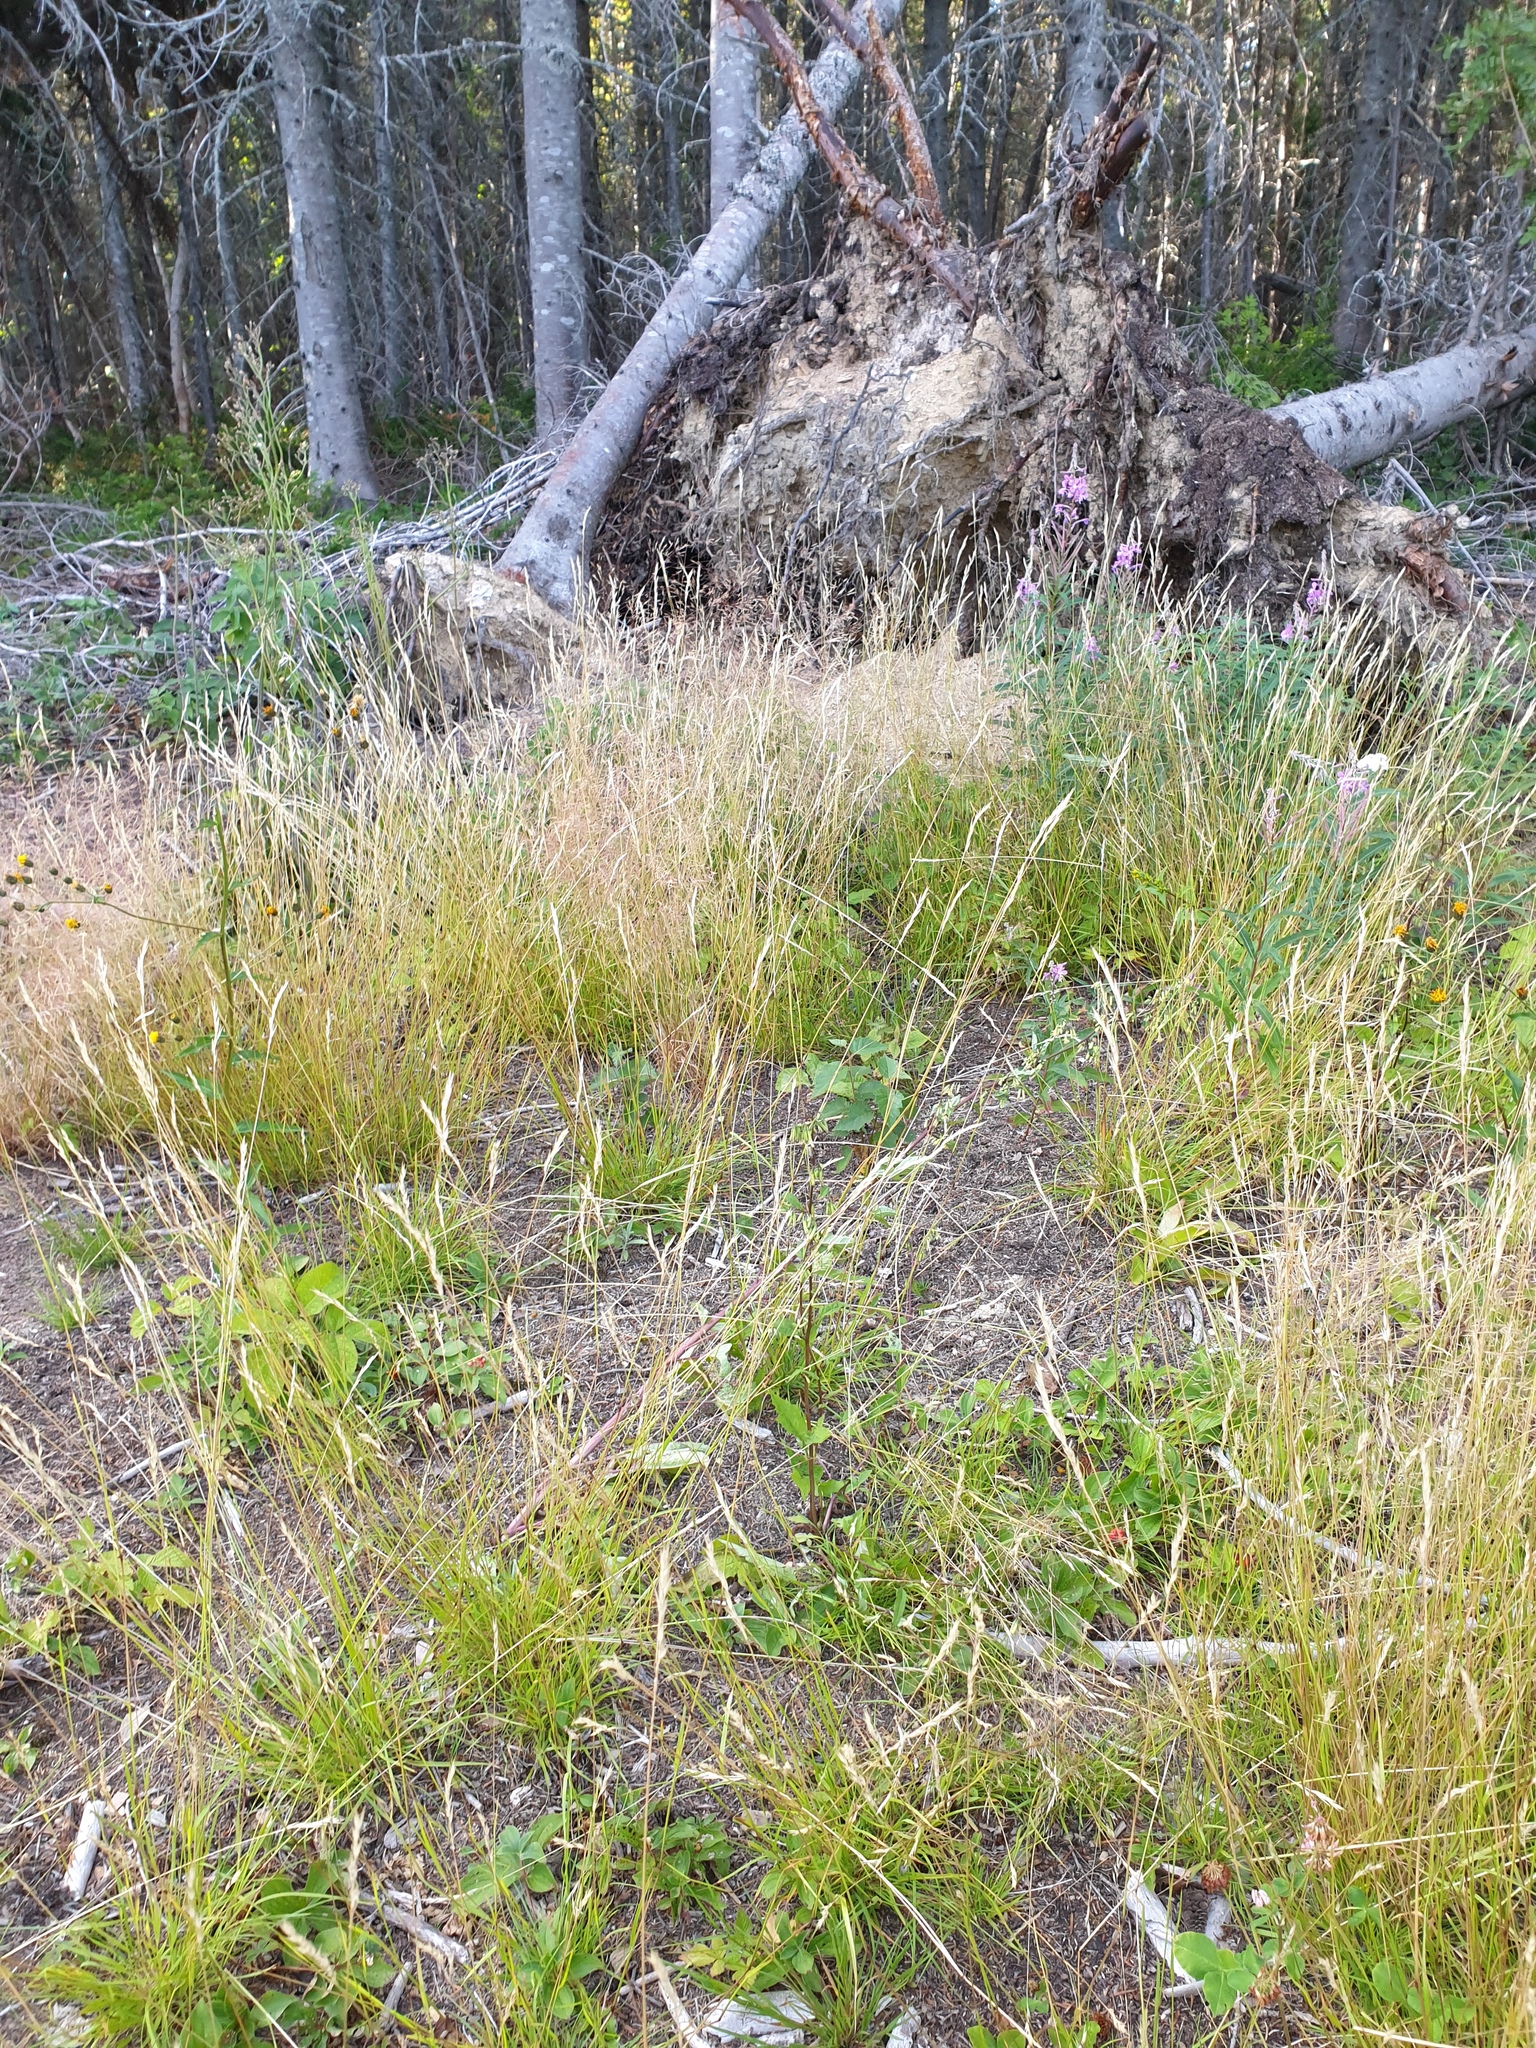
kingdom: Plantae
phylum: Tracheophyta
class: Magnoliopsida
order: Asterales
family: Asteraceae
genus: Solidago
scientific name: Solidago macrophylla
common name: Large-leaved goldenrod
